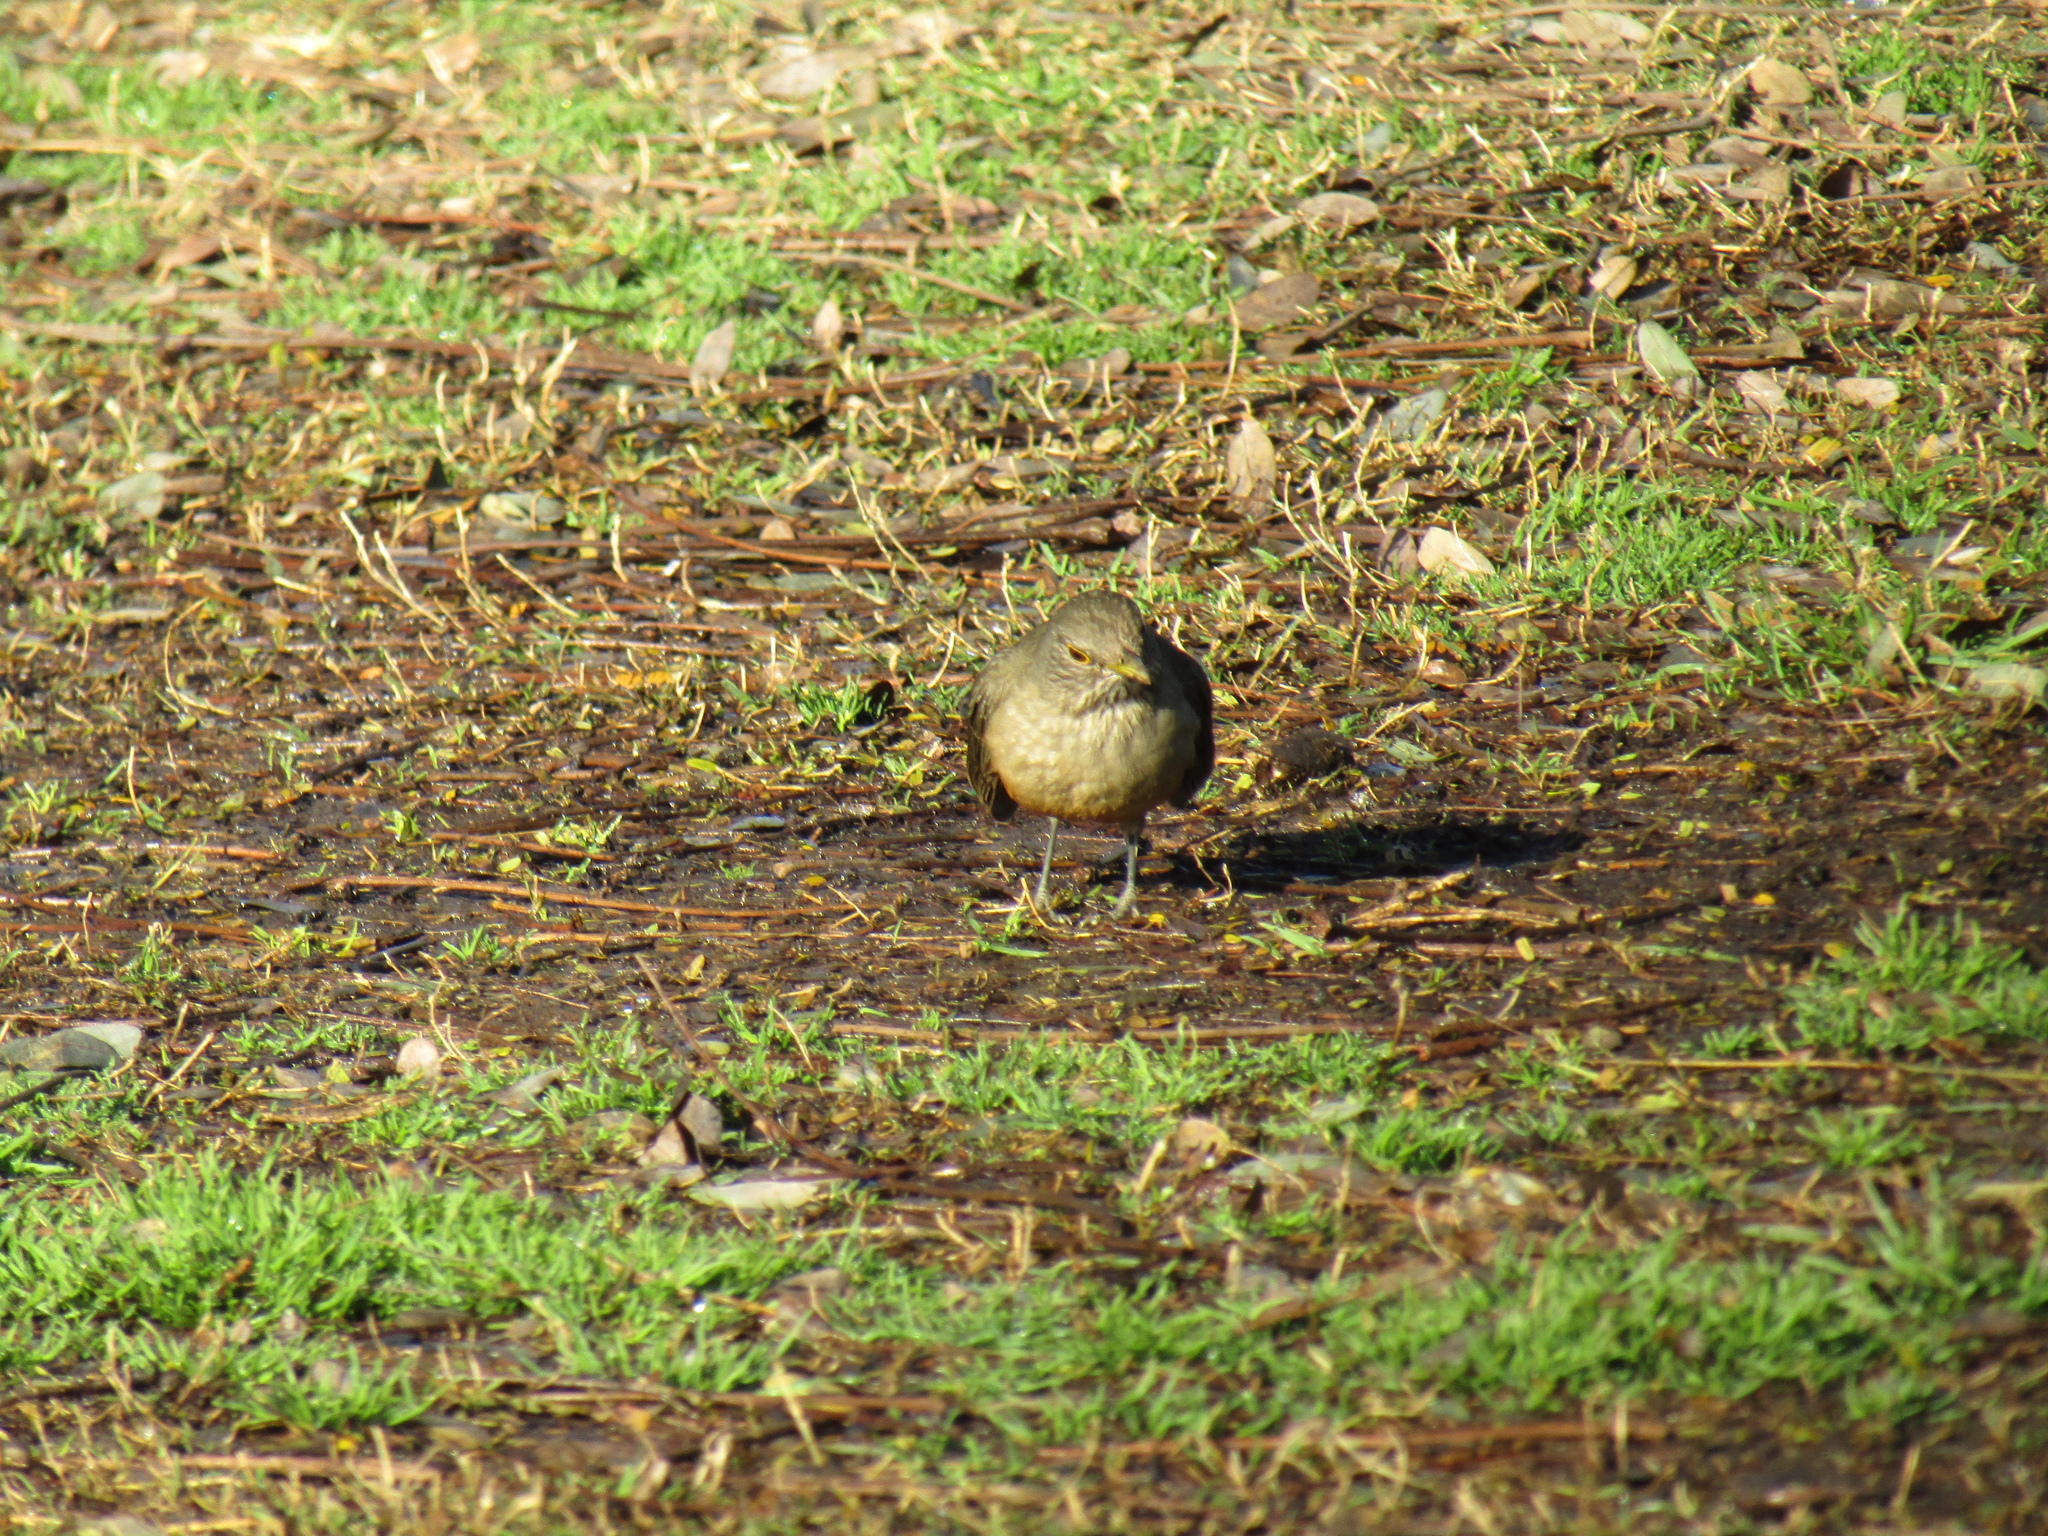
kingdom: Animalia
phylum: Chordata
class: Aves
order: Passeriformes
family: Turdidae
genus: Turdus
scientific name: Turdus rufiventris
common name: Rufous-bellied thrush
